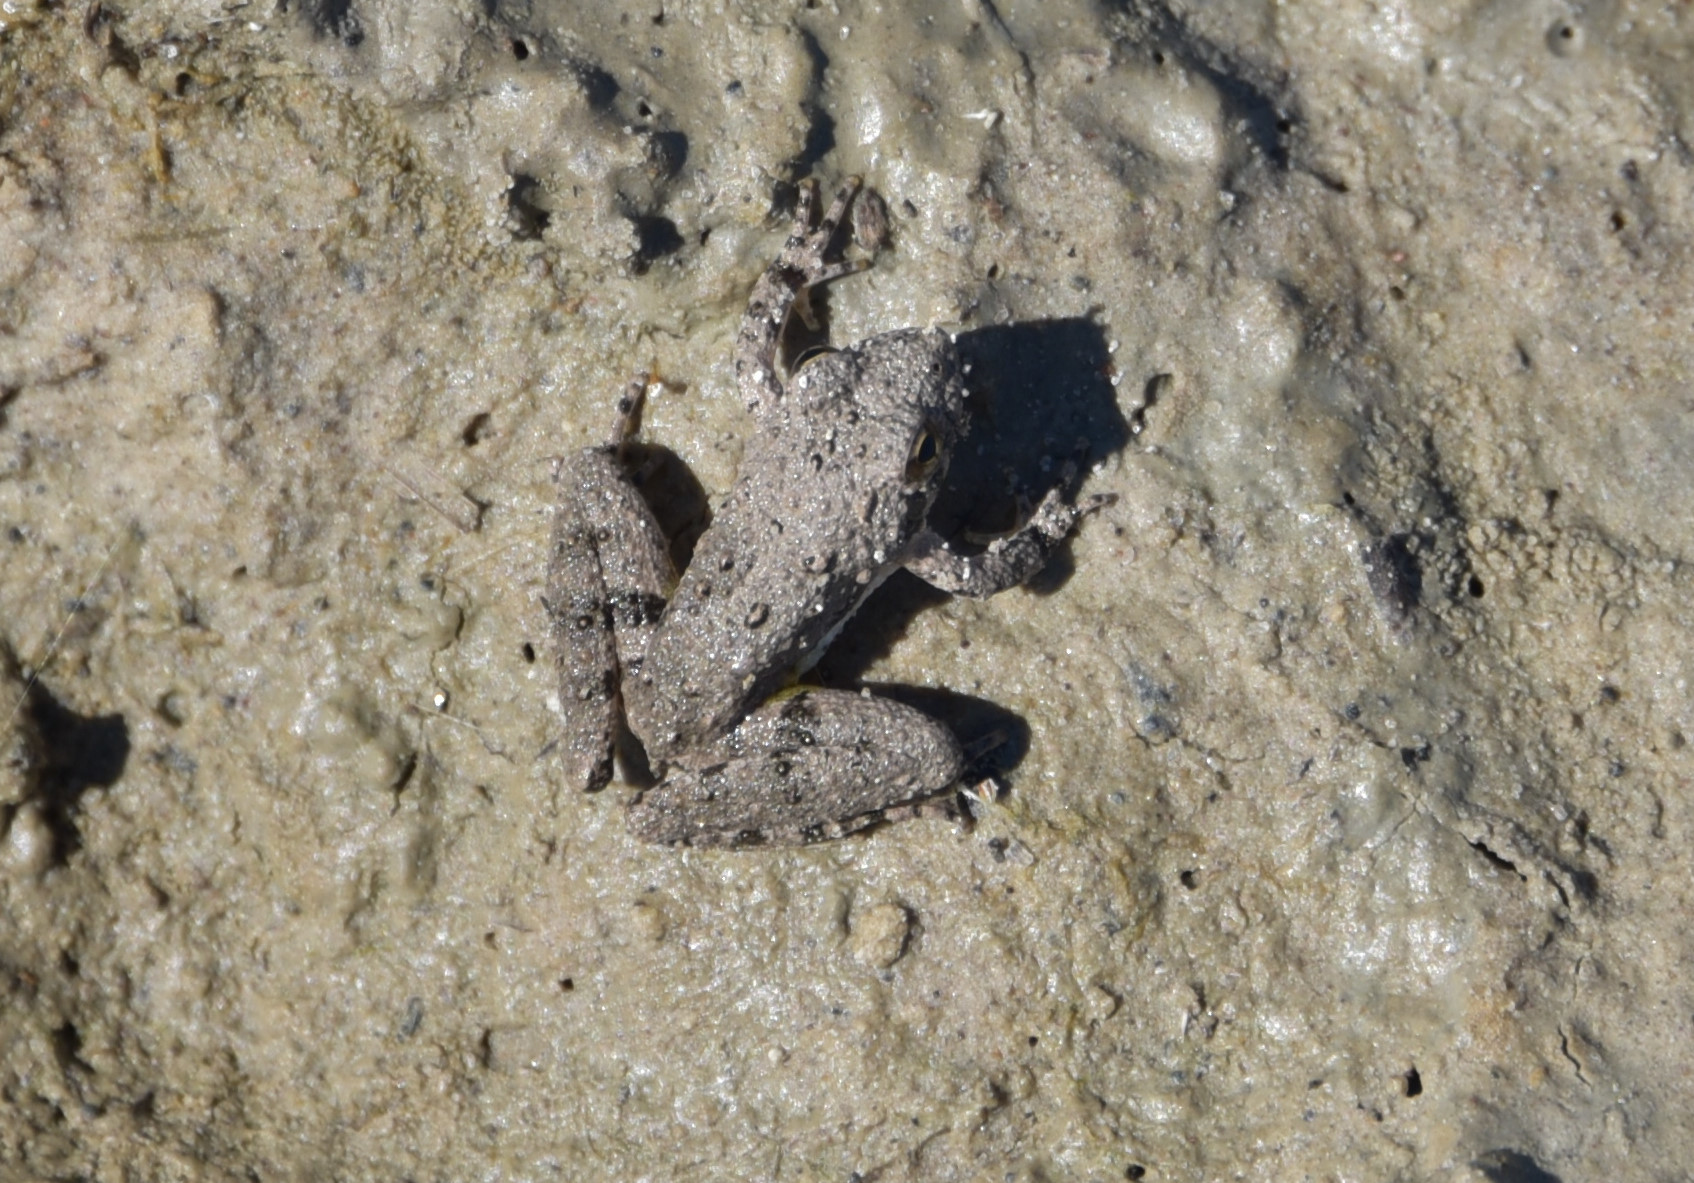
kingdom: Animalia
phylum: Chordata
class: Amphibia
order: Anura
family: Hylidae
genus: Acris
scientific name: Acris blanchardi
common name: Blanchard's cricket frog
